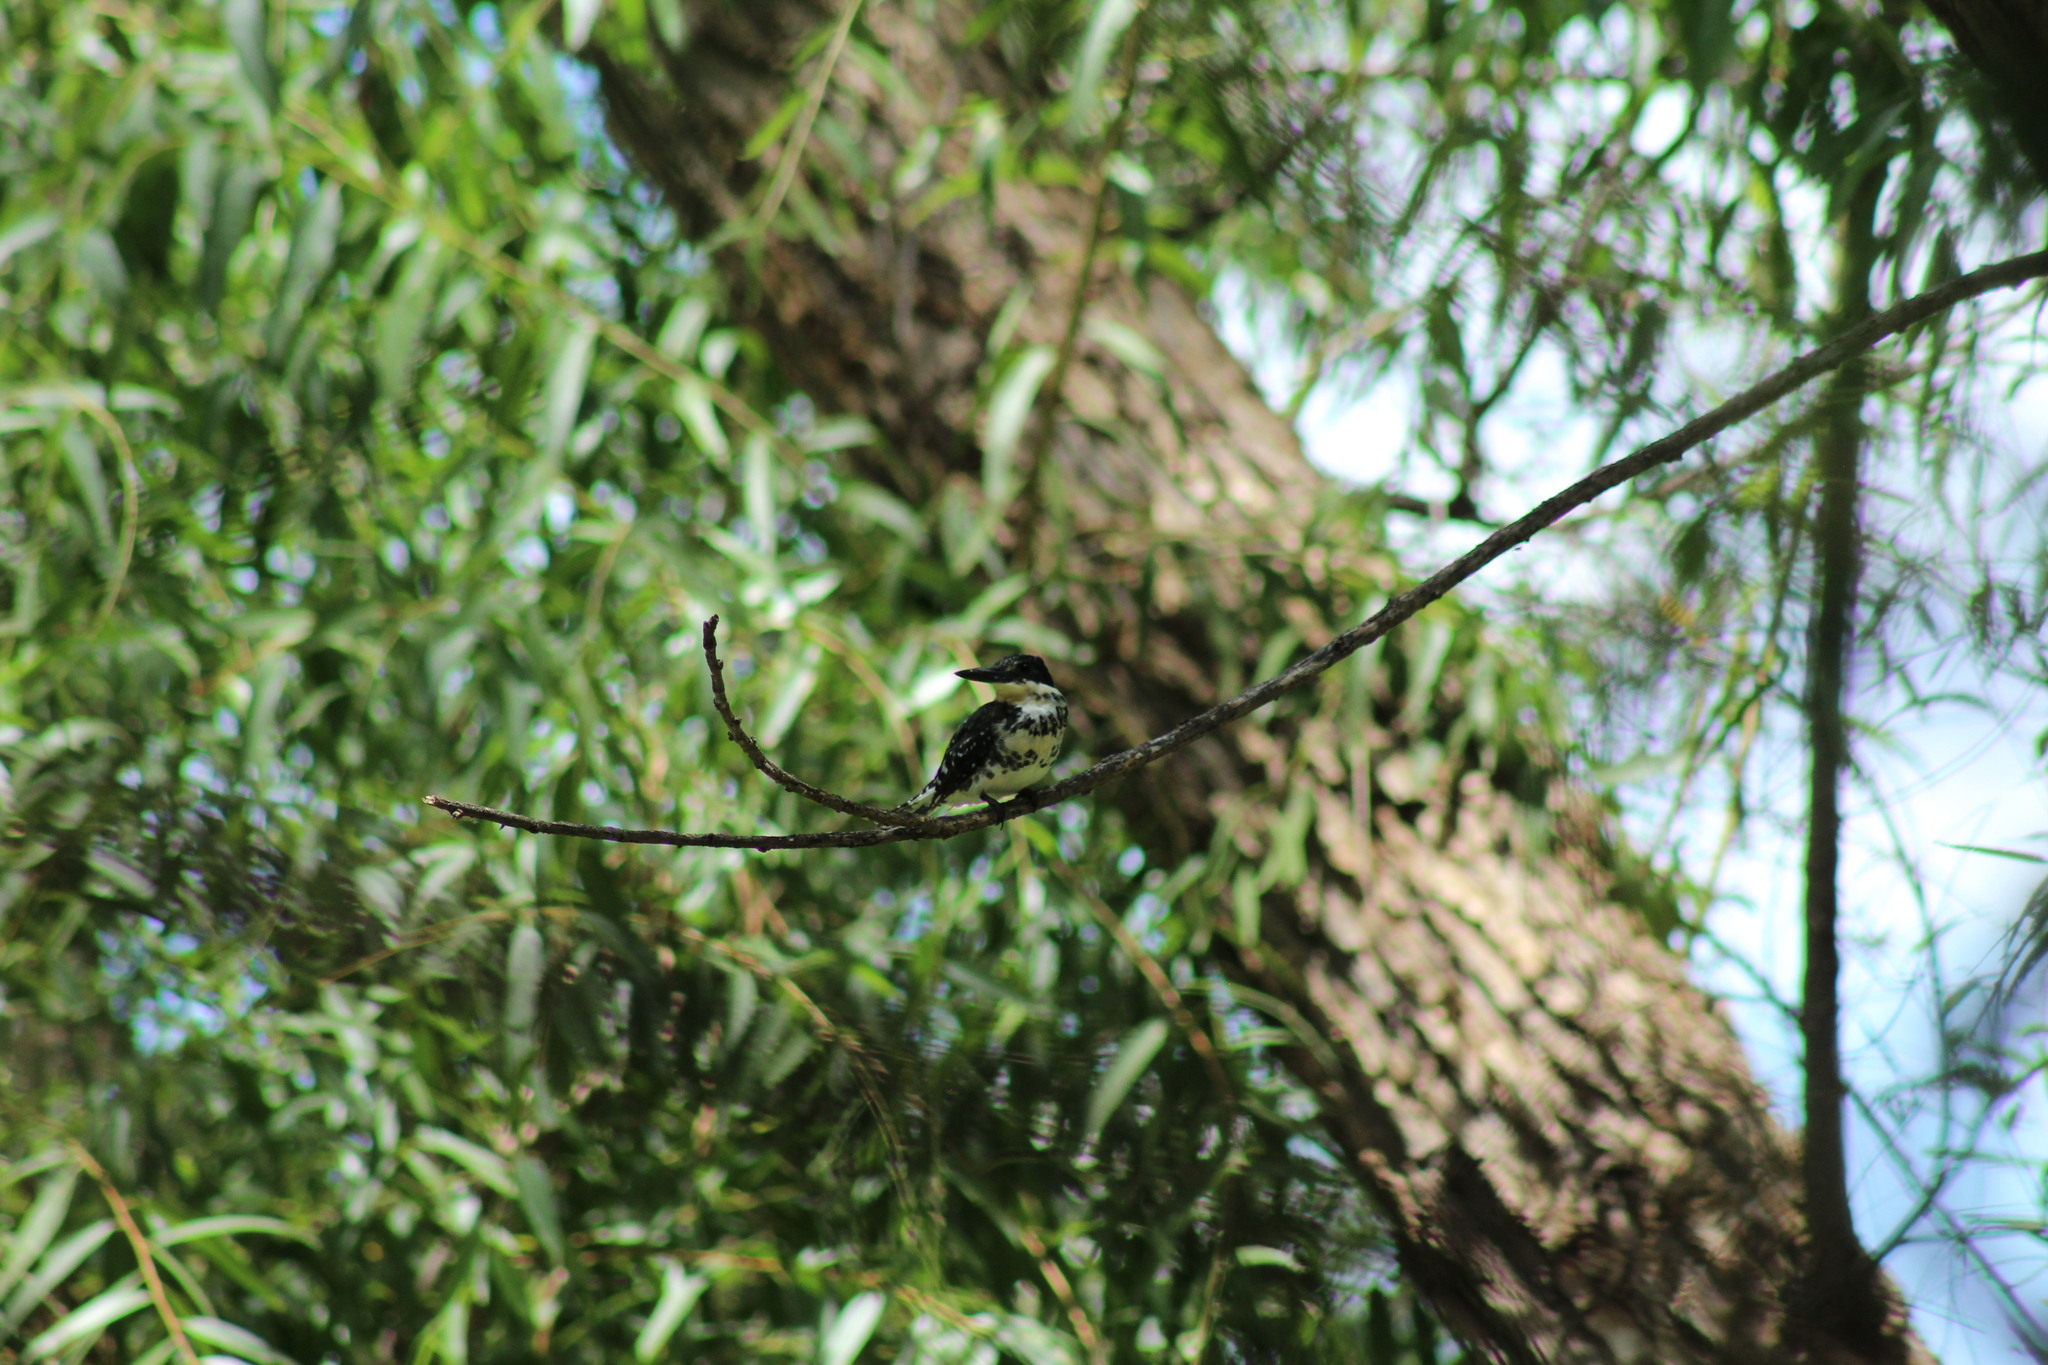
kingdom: Animalia
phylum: Chordata
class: Aves
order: Coraciiformes
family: Alcedinidae
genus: Chloroceryle
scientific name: Chloroceryle americana
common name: Green kingfisher
